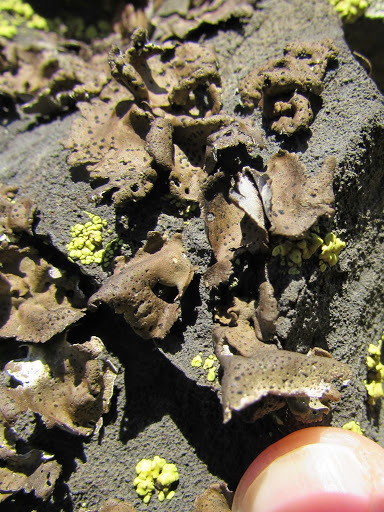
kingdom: Fungi
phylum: Ascomycota
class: Lecanoromycetes
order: Umbilicariales
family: Umbilicariaceae
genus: Umbilicaria
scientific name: Umbilicaria phaea
